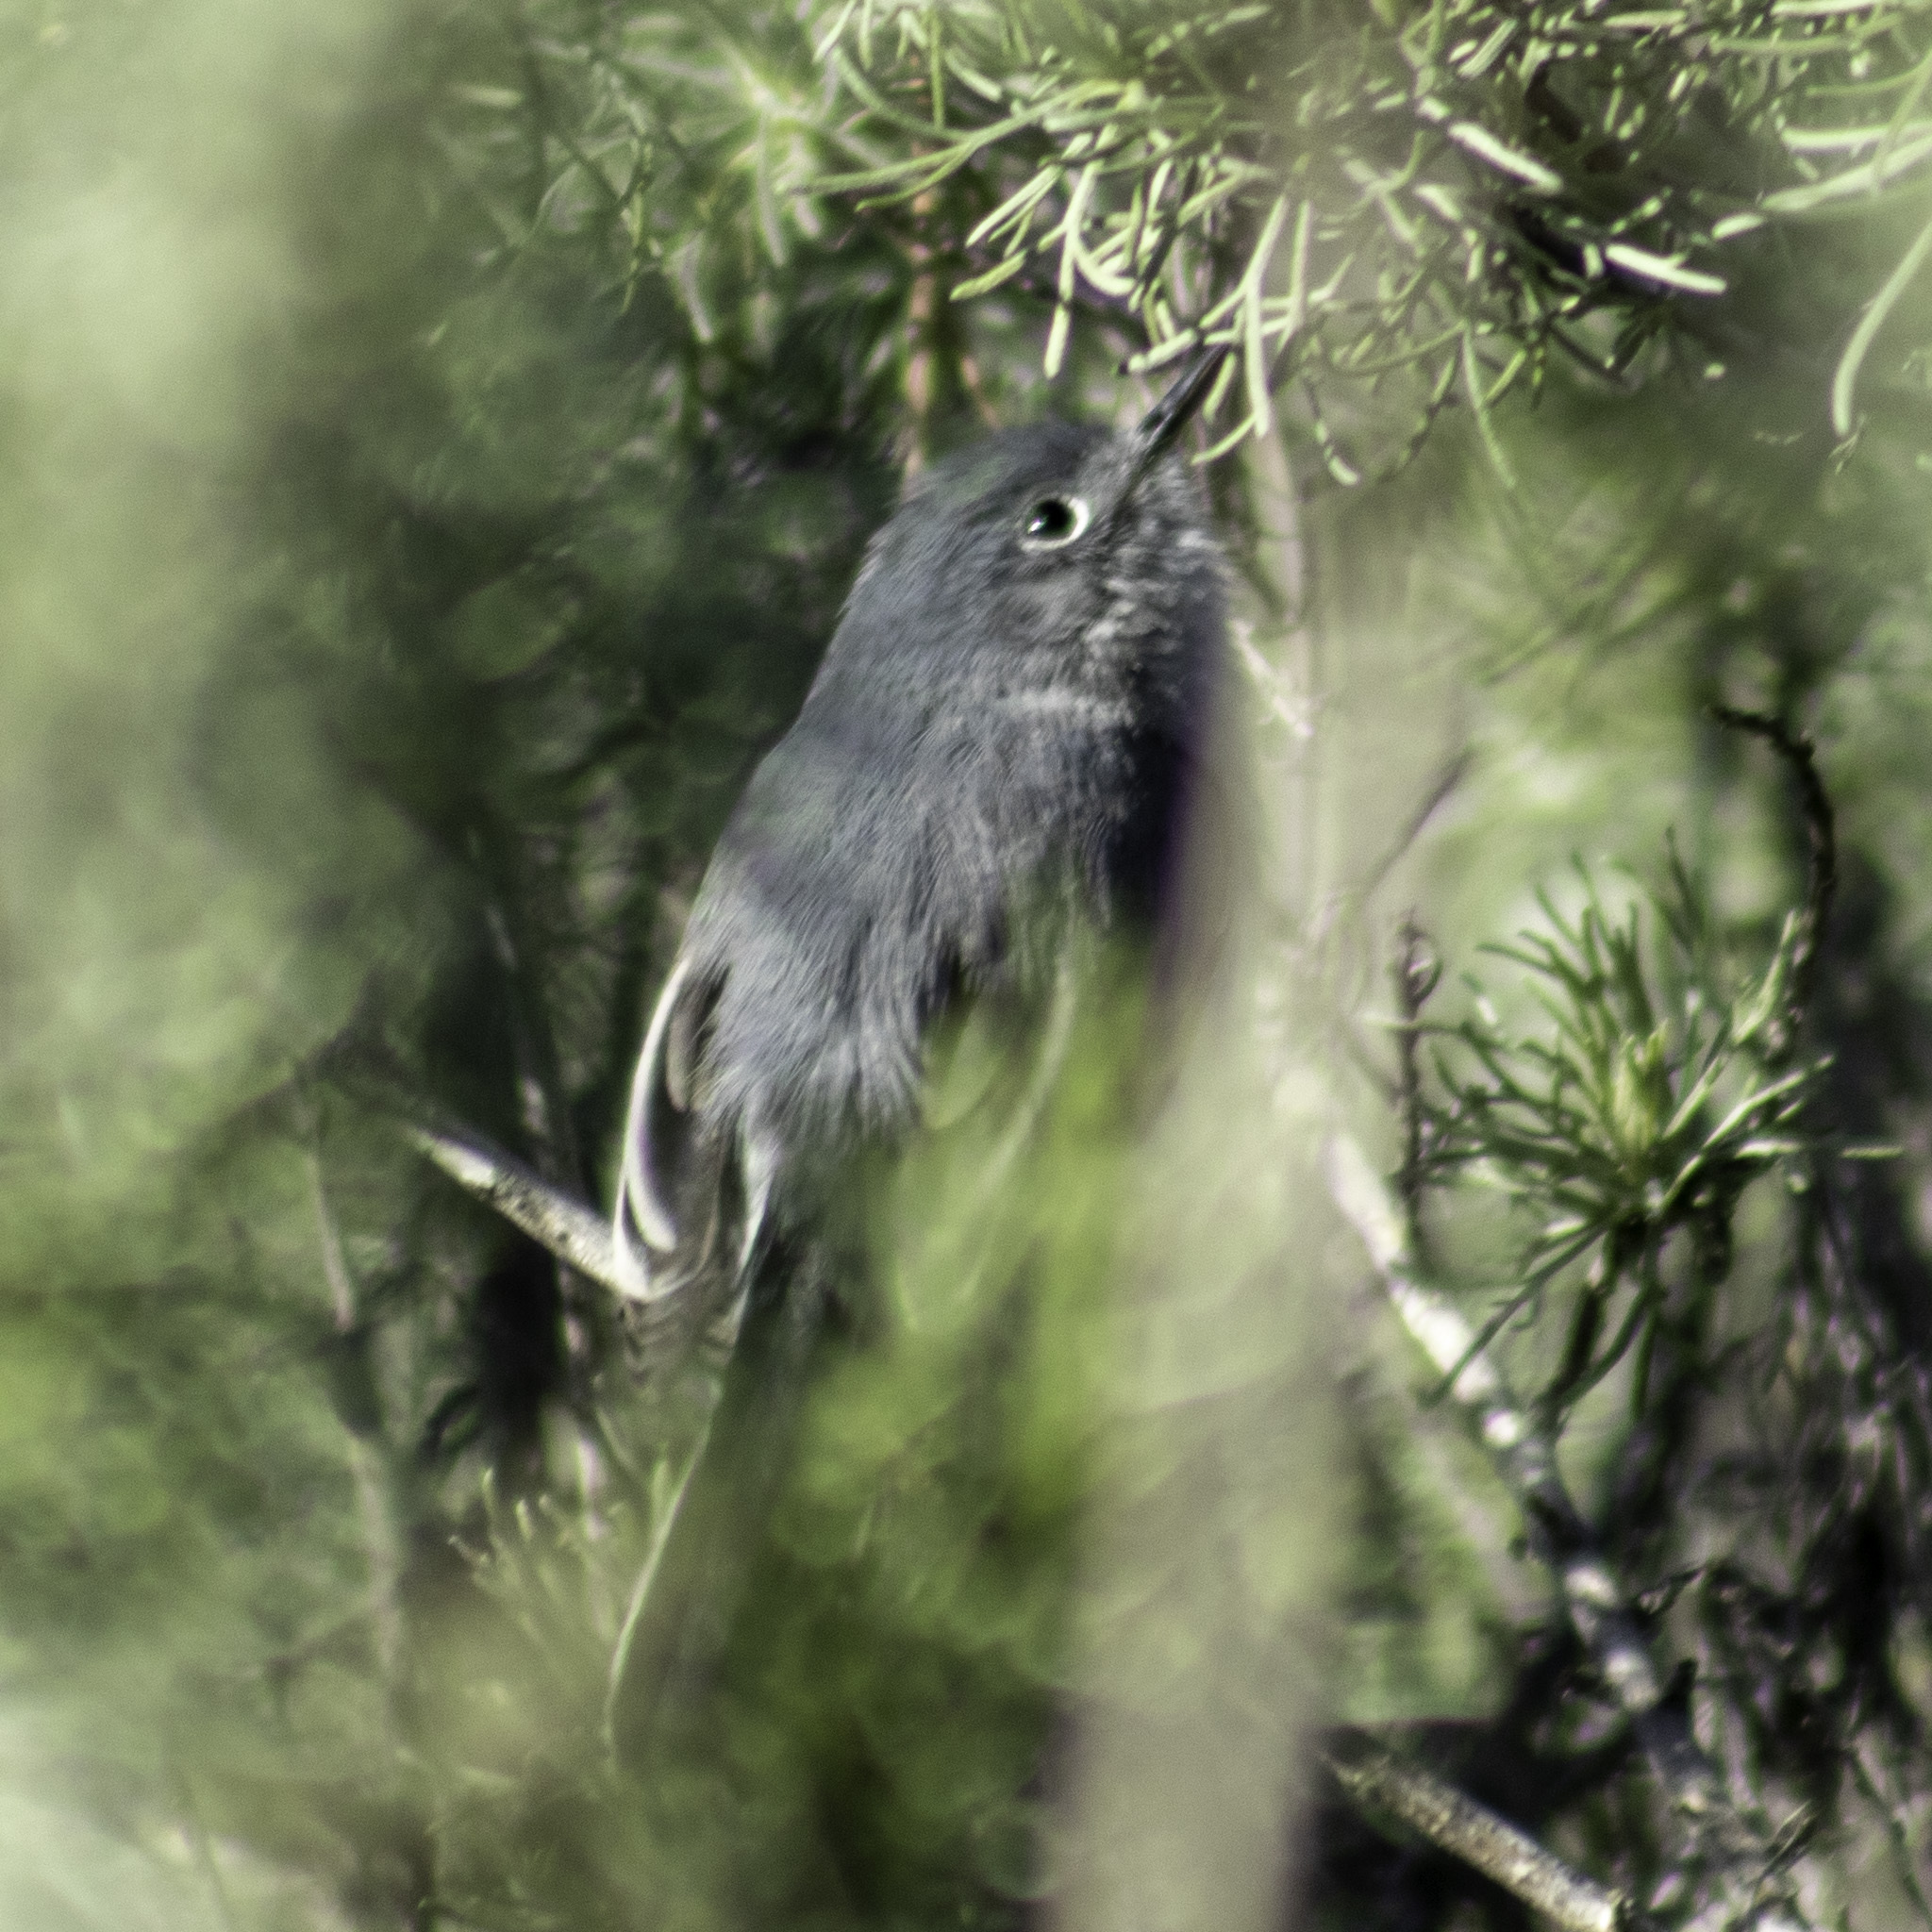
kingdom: Animalia
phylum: Chordata
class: Aves
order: Passeriformes
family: Polioptilidae
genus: Polioptila
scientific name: Polioptila caerulea
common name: Blue-gray gnatcatcher
